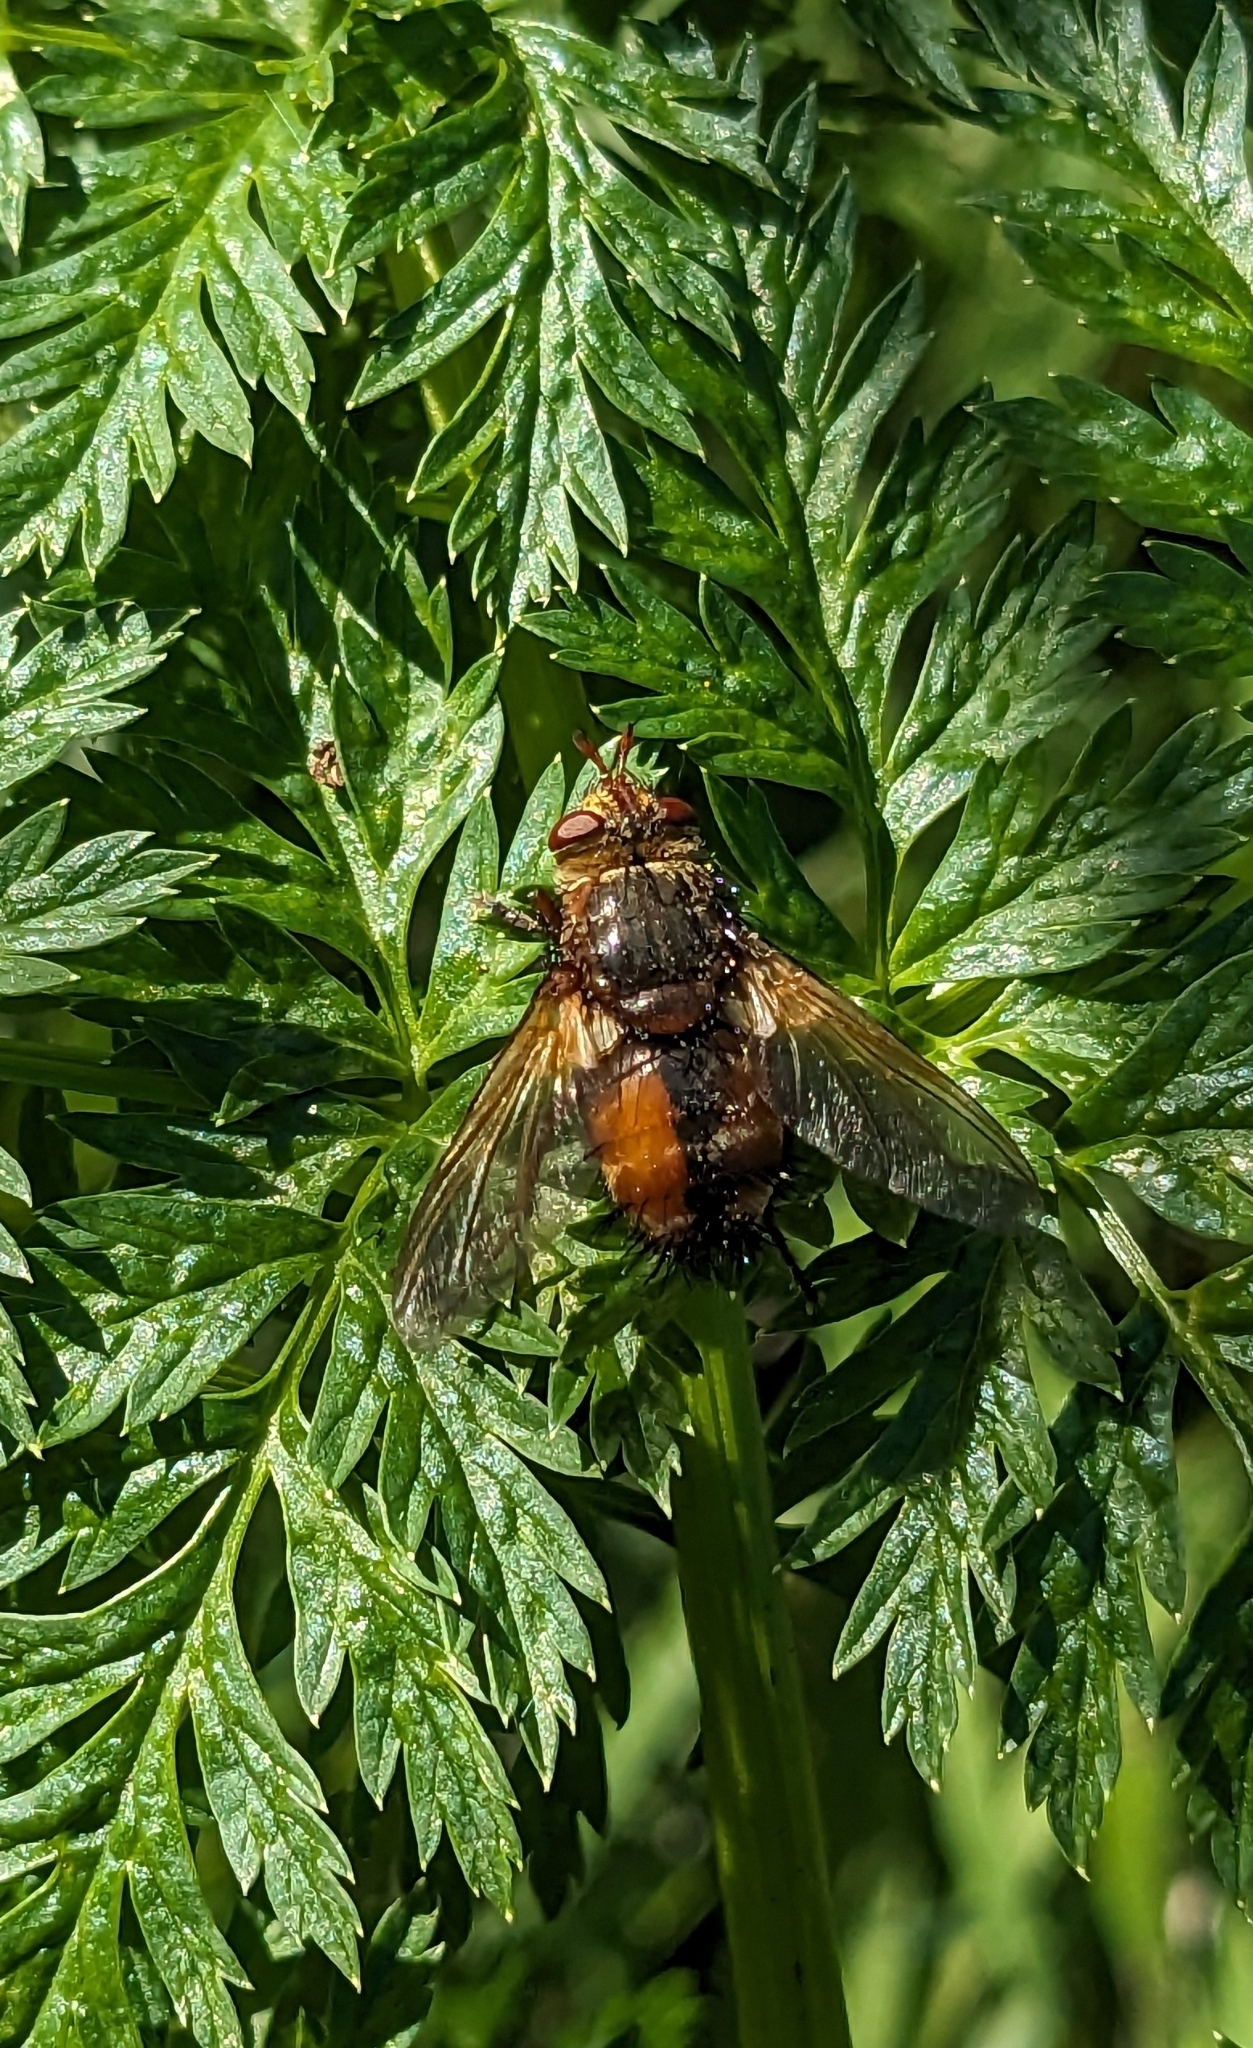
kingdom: Animalia
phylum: Arthropoda
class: Insecta
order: Diptera
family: Tachinidae
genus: Tachina
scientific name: Tachina fera
